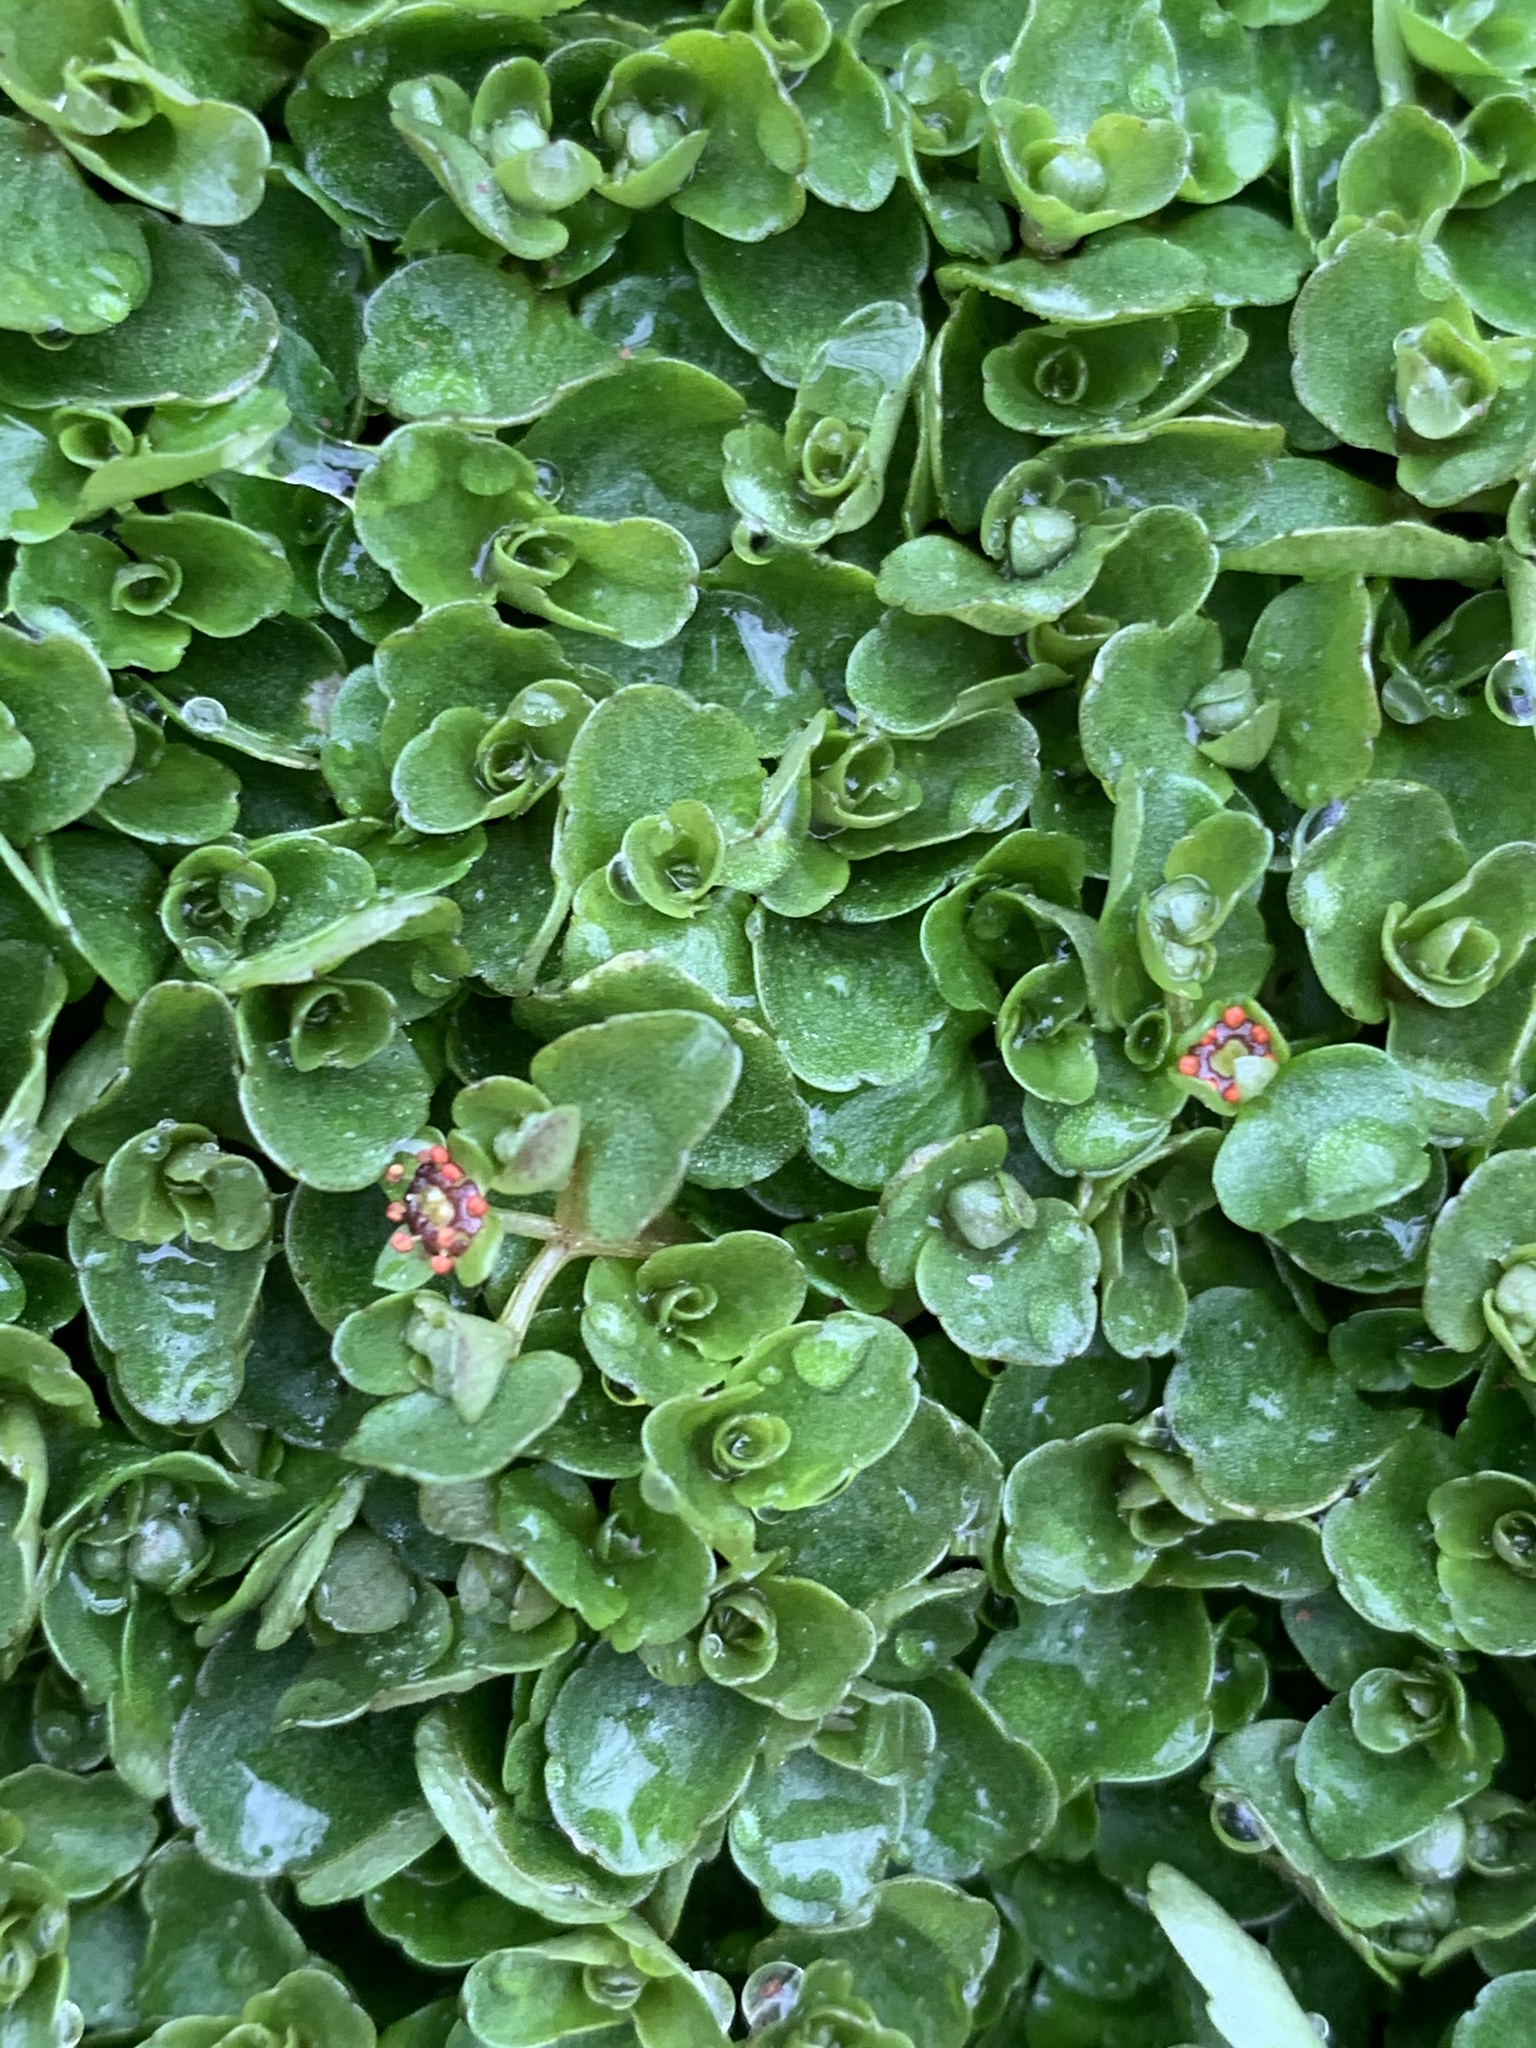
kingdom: Plantae
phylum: Tracheophyta
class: Magnoliopsida
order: Saxifragales
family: Saxifragaceae
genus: Chrysosplenium
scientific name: Chrysosplenium americanum
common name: American golden-saxifrage
